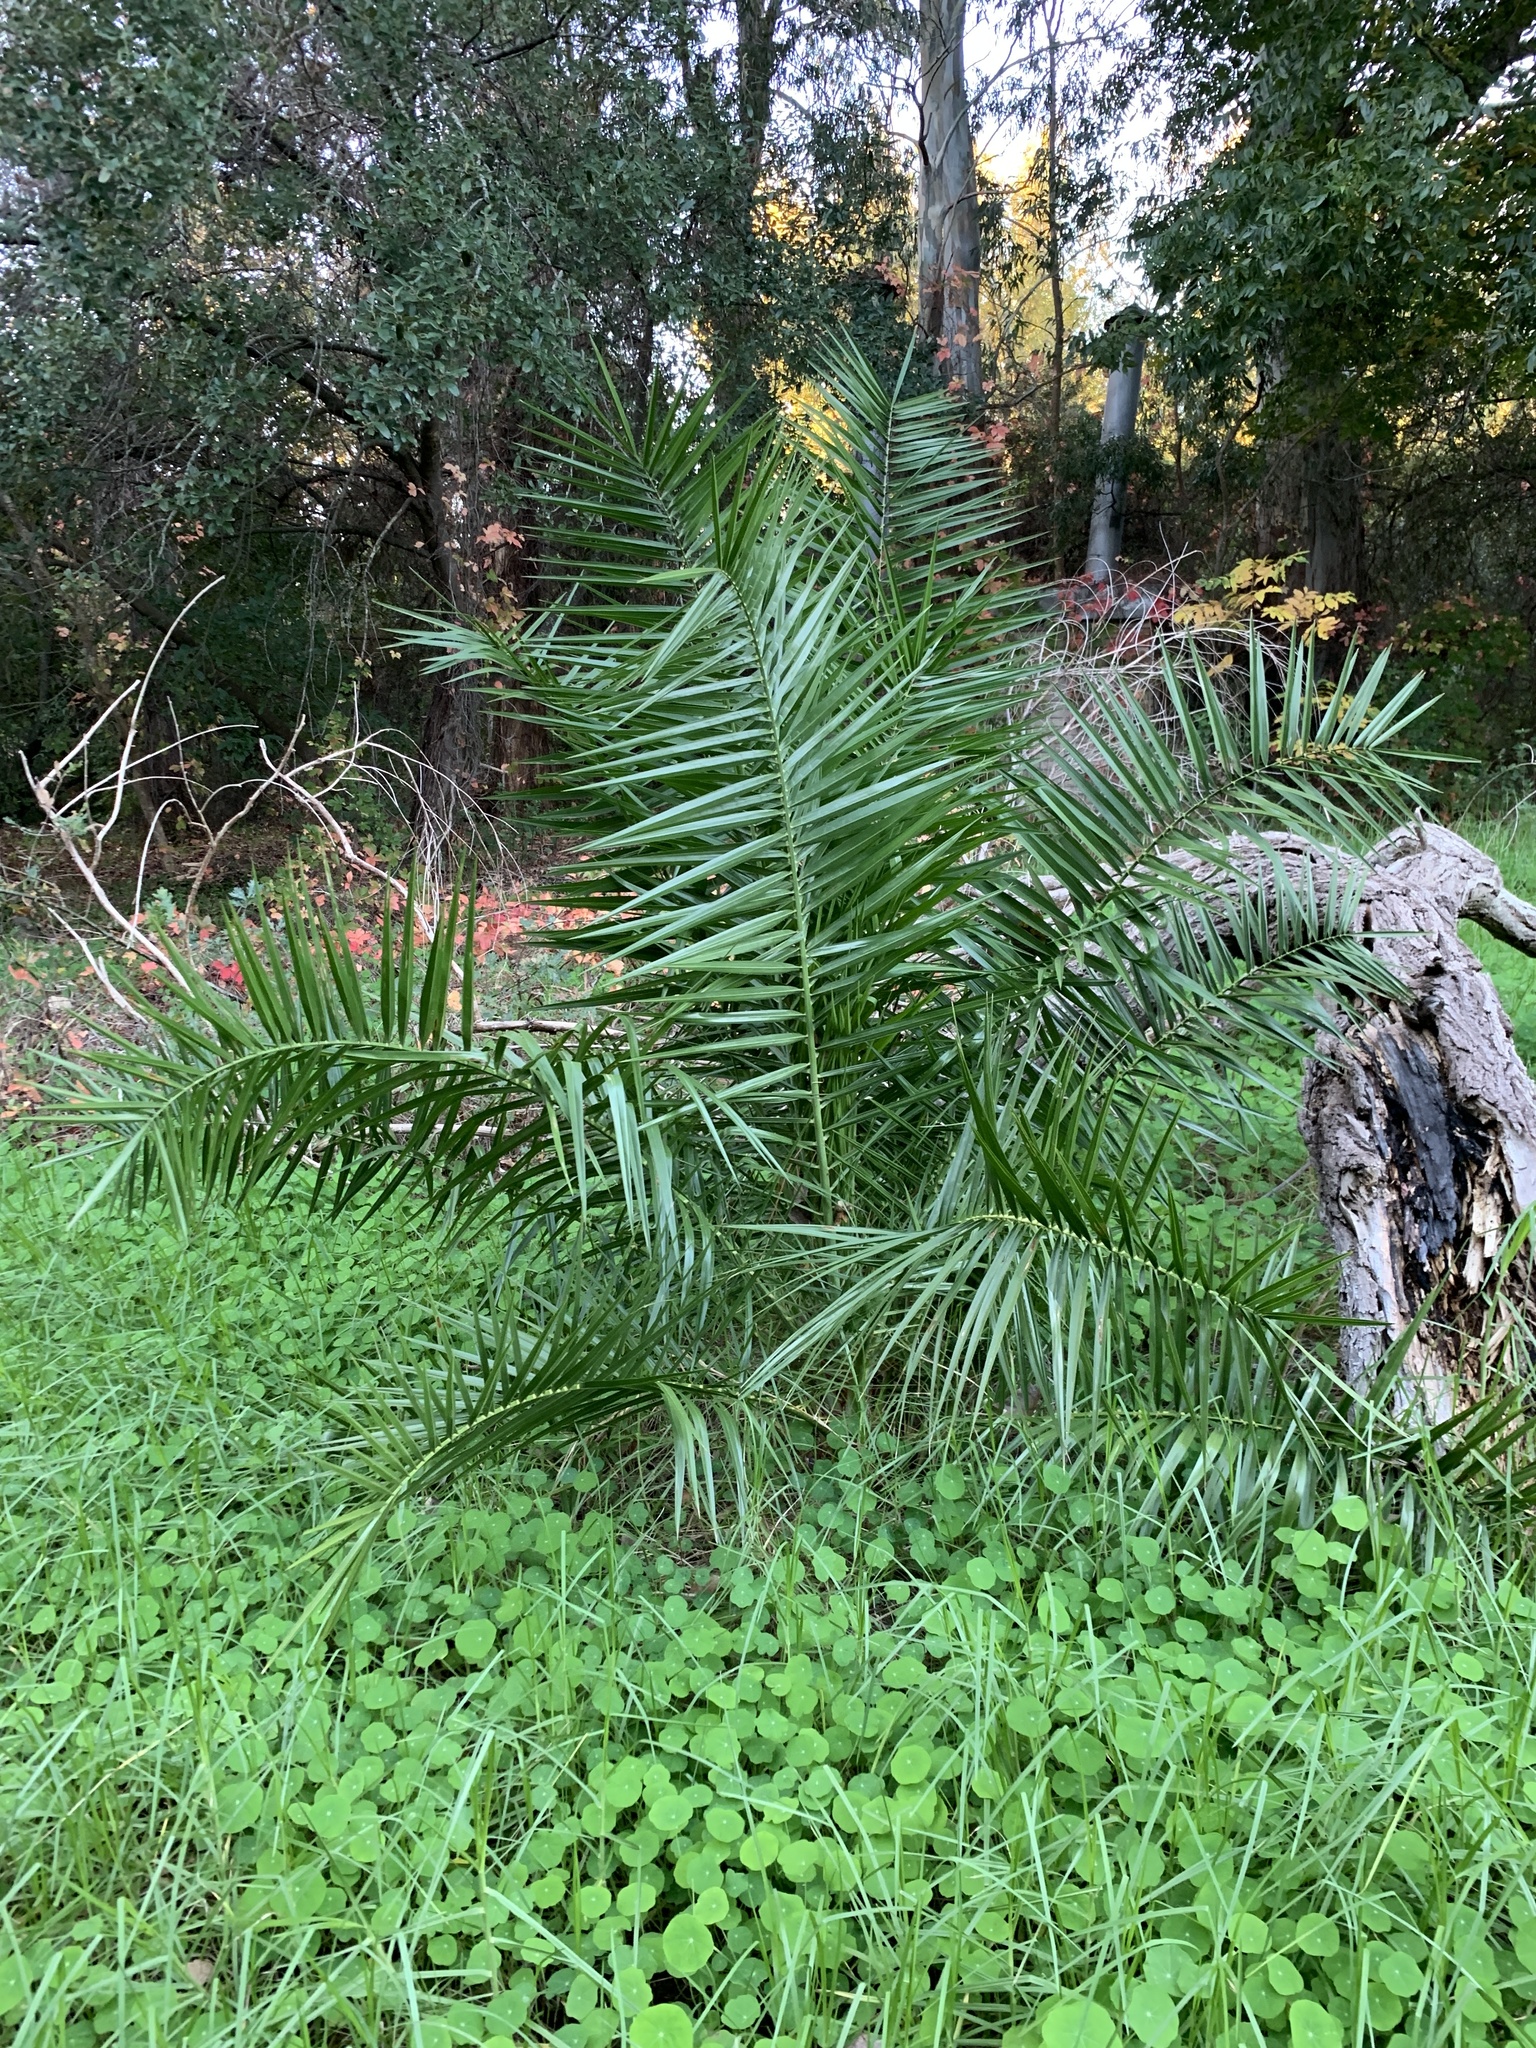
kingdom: Plantae
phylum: Tracheophyta
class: Liliopsida
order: Arecales
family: Arecaceae
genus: Phoenix
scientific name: Phoenix canariensis
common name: Canary island date palm
